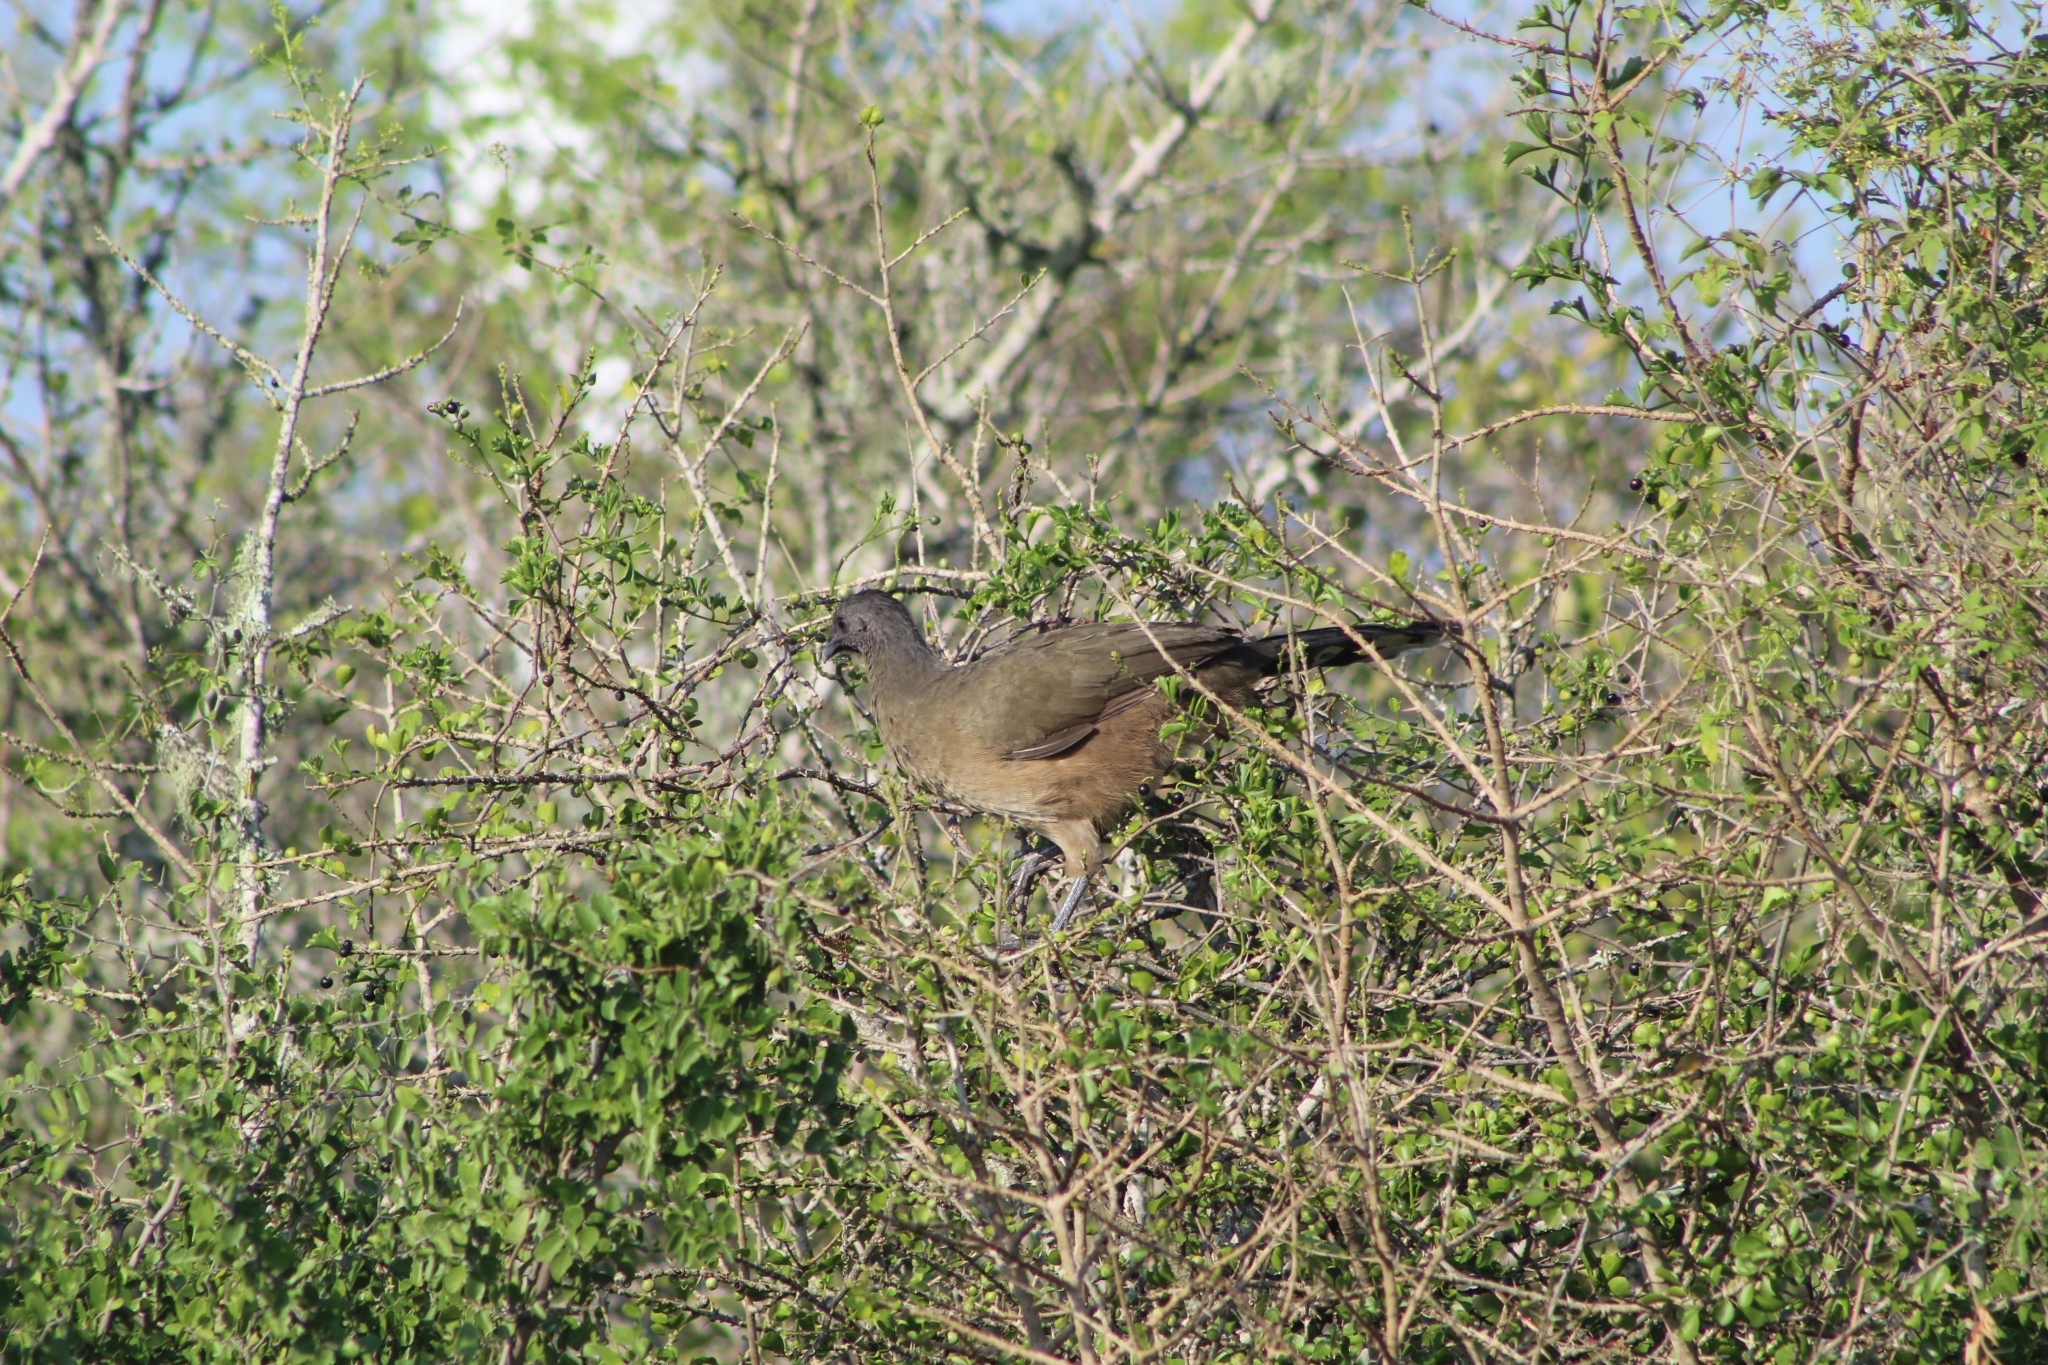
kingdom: Animalia
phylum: Chordata
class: Aves
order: Galliformes
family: Cracidae
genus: Ortalis
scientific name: Ortalis vetula
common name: Plain chachalaca
